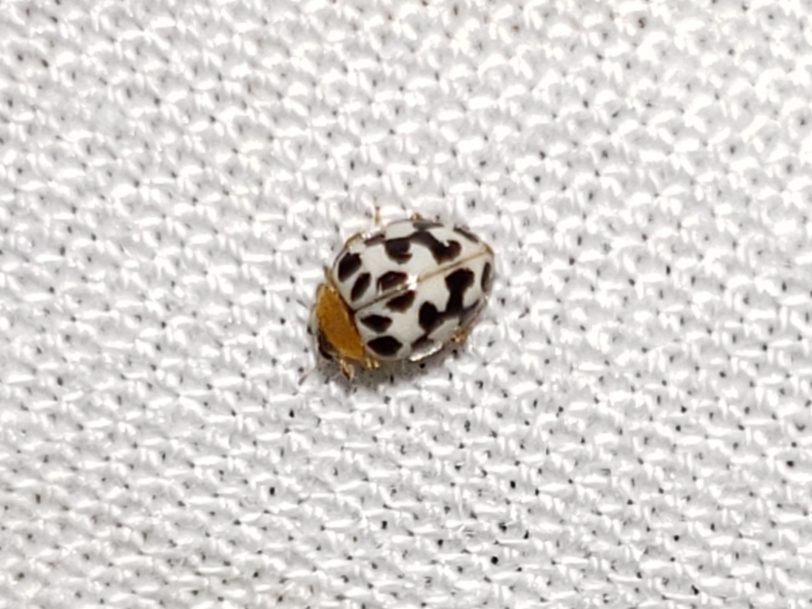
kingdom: Animalia
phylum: Arthropoda
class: Insecta
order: Coleoptera
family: Coccinellidae
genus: Psyllobora
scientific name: Psyllobora parvinotata
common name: Small-spotted psyllobora
